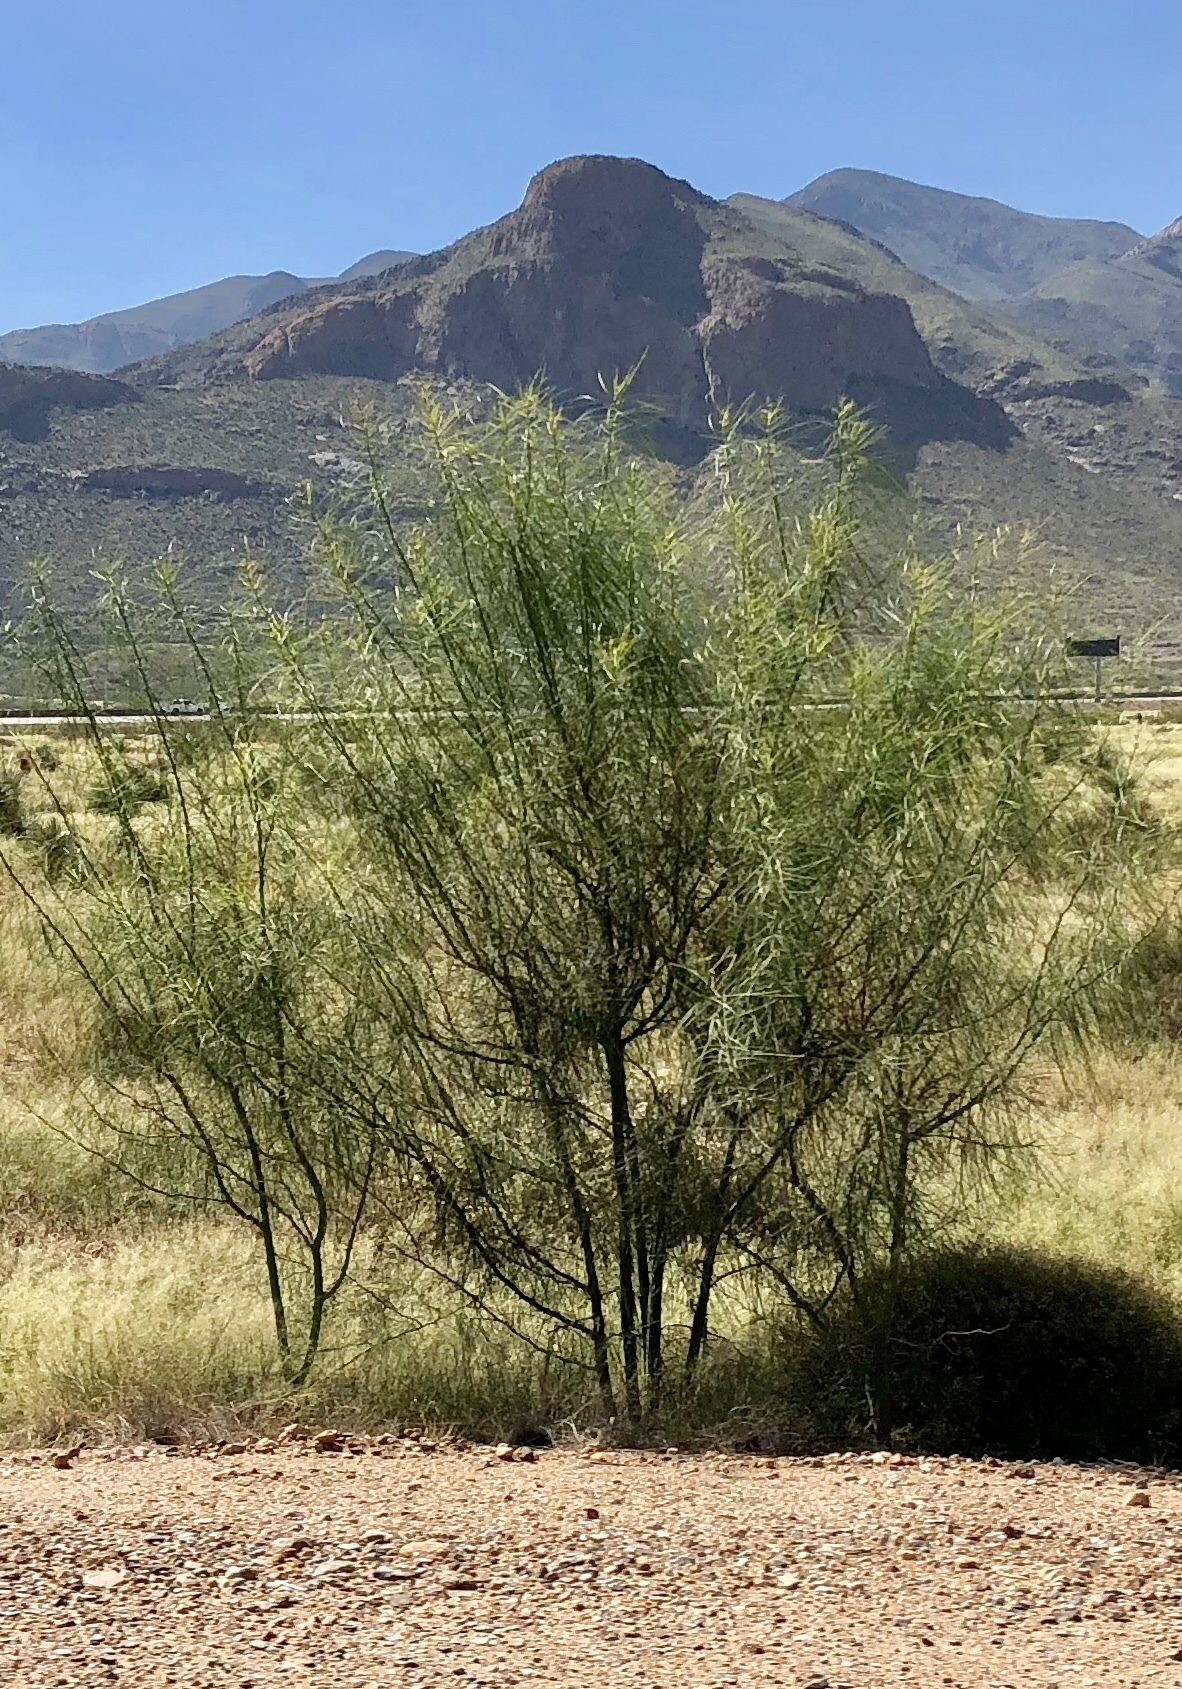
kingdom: Plantae
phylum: Tracheophyta
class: Magnoliopsida
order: Fabales
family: Fabaceae
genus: Parkinsonia
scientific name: Parkinsonia aculeata
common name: Jerusalem thorn
